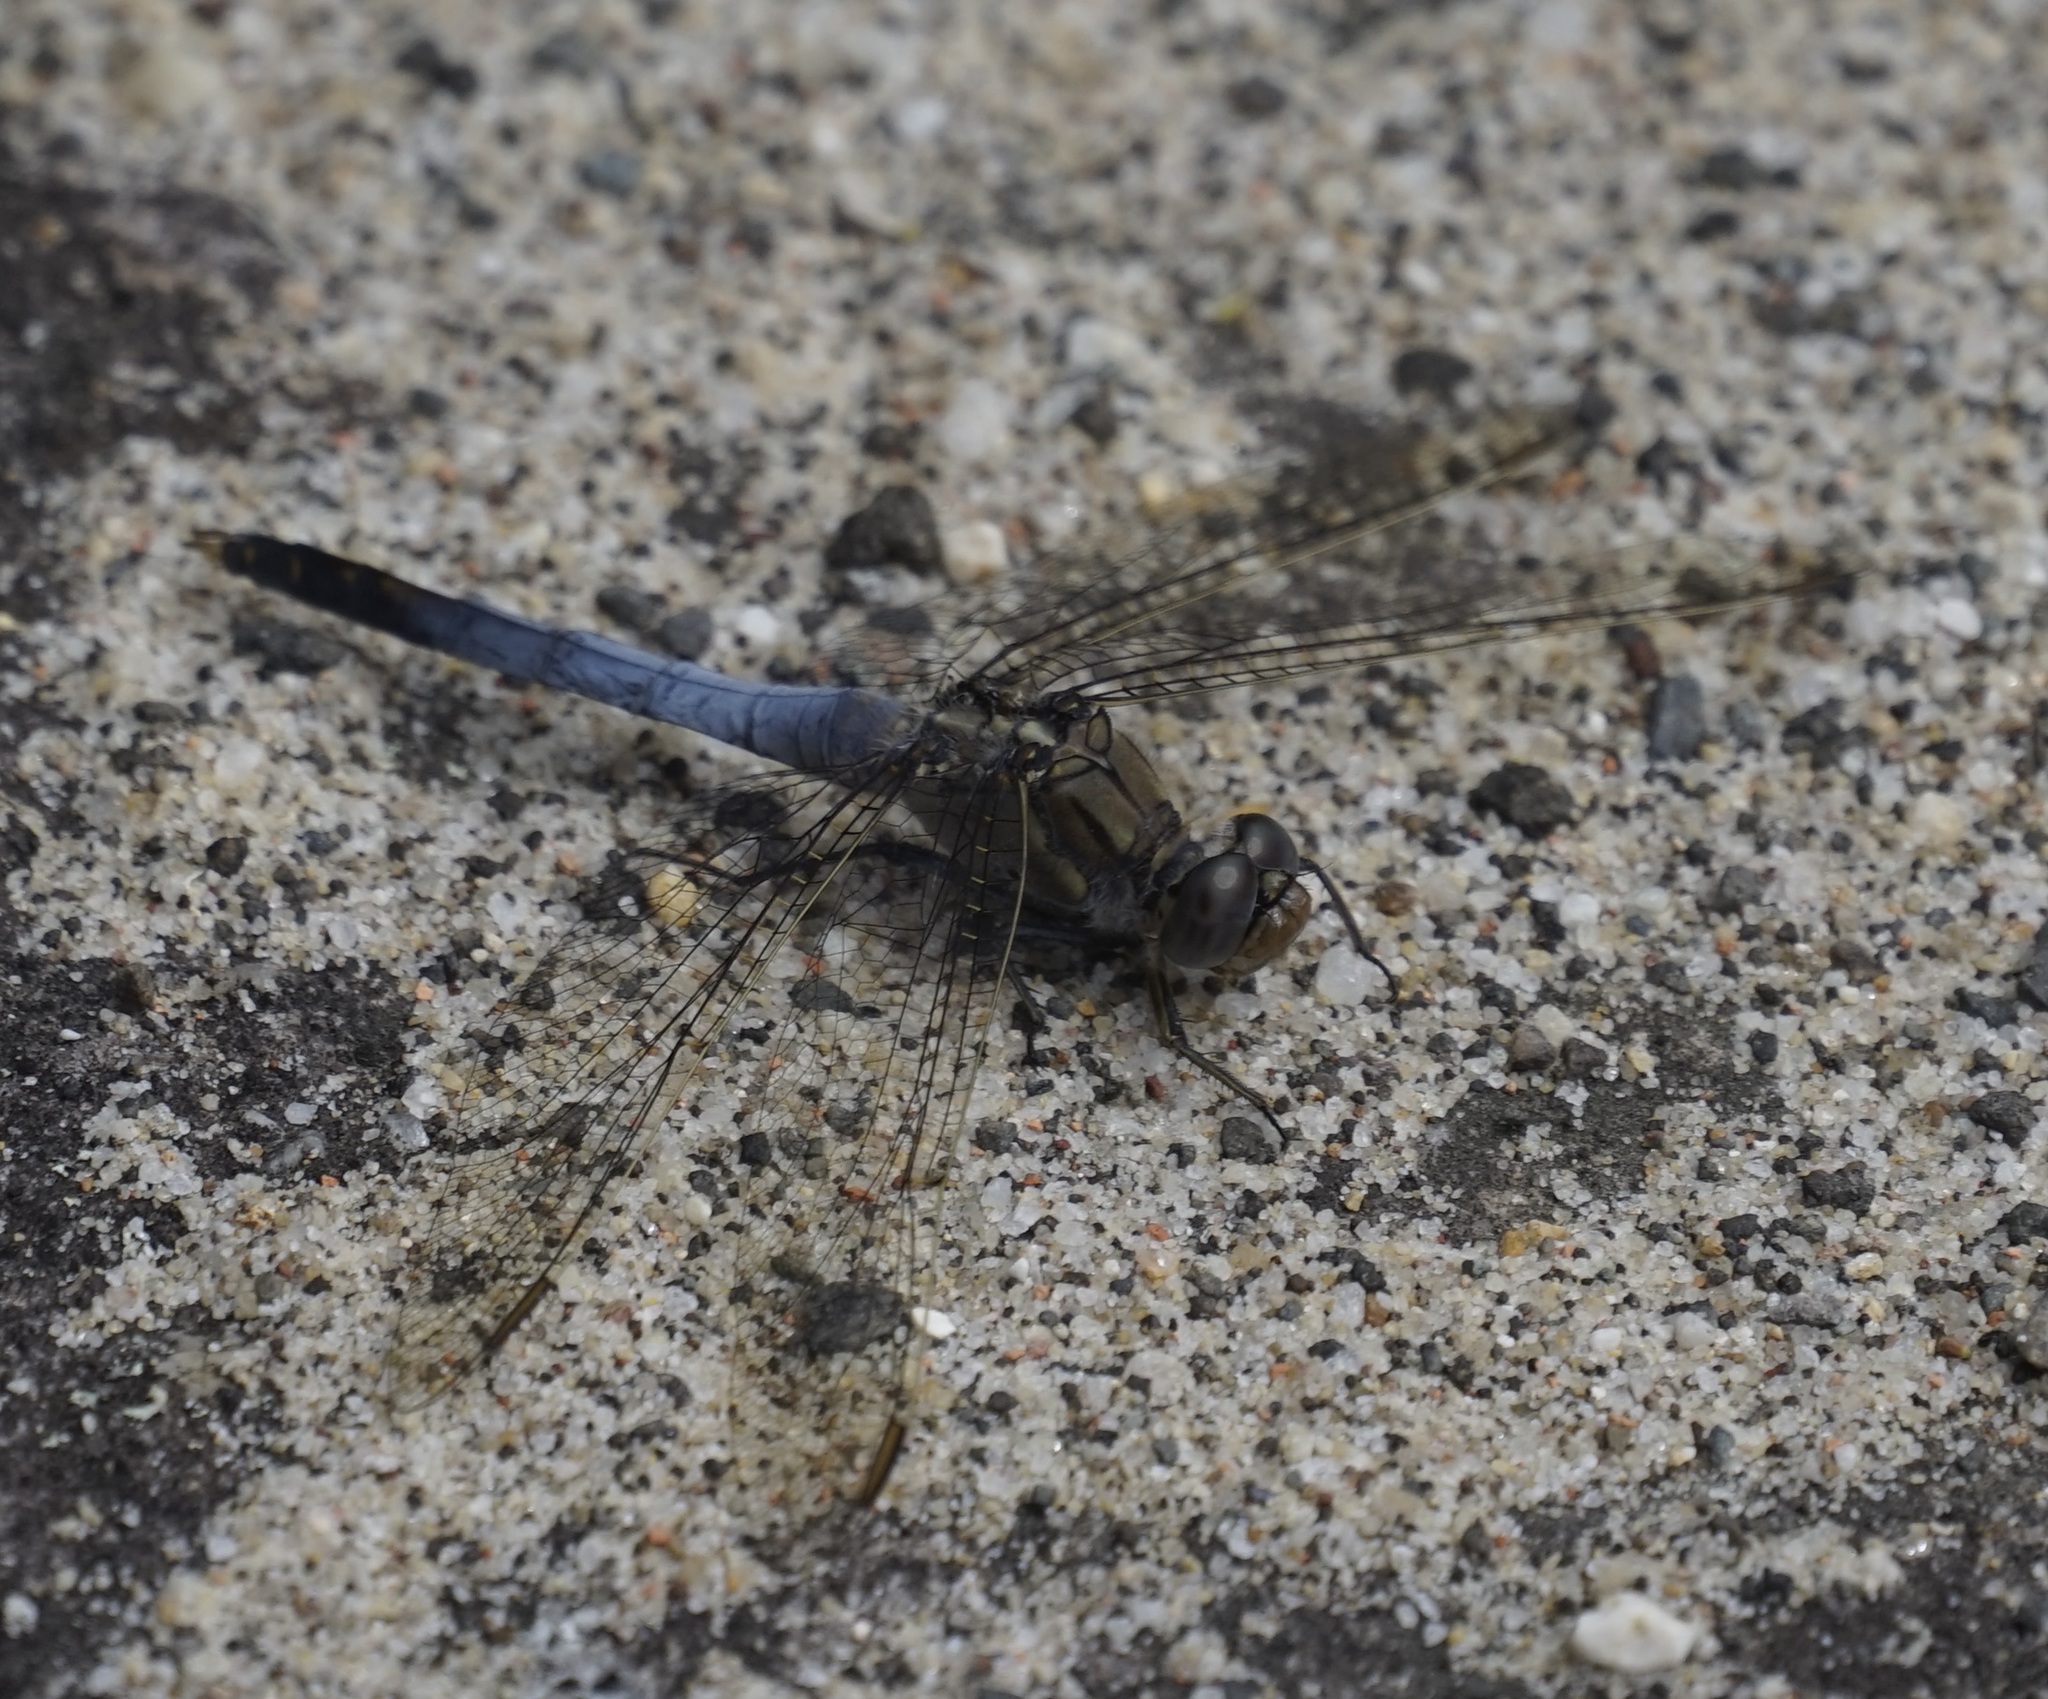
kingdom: Animalia
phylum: Arthropoda
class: Insecta
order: Odonata
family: Libellulidae
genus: Orthetrum
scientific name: Orthetrum caledonicum
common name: Blue skimmer
